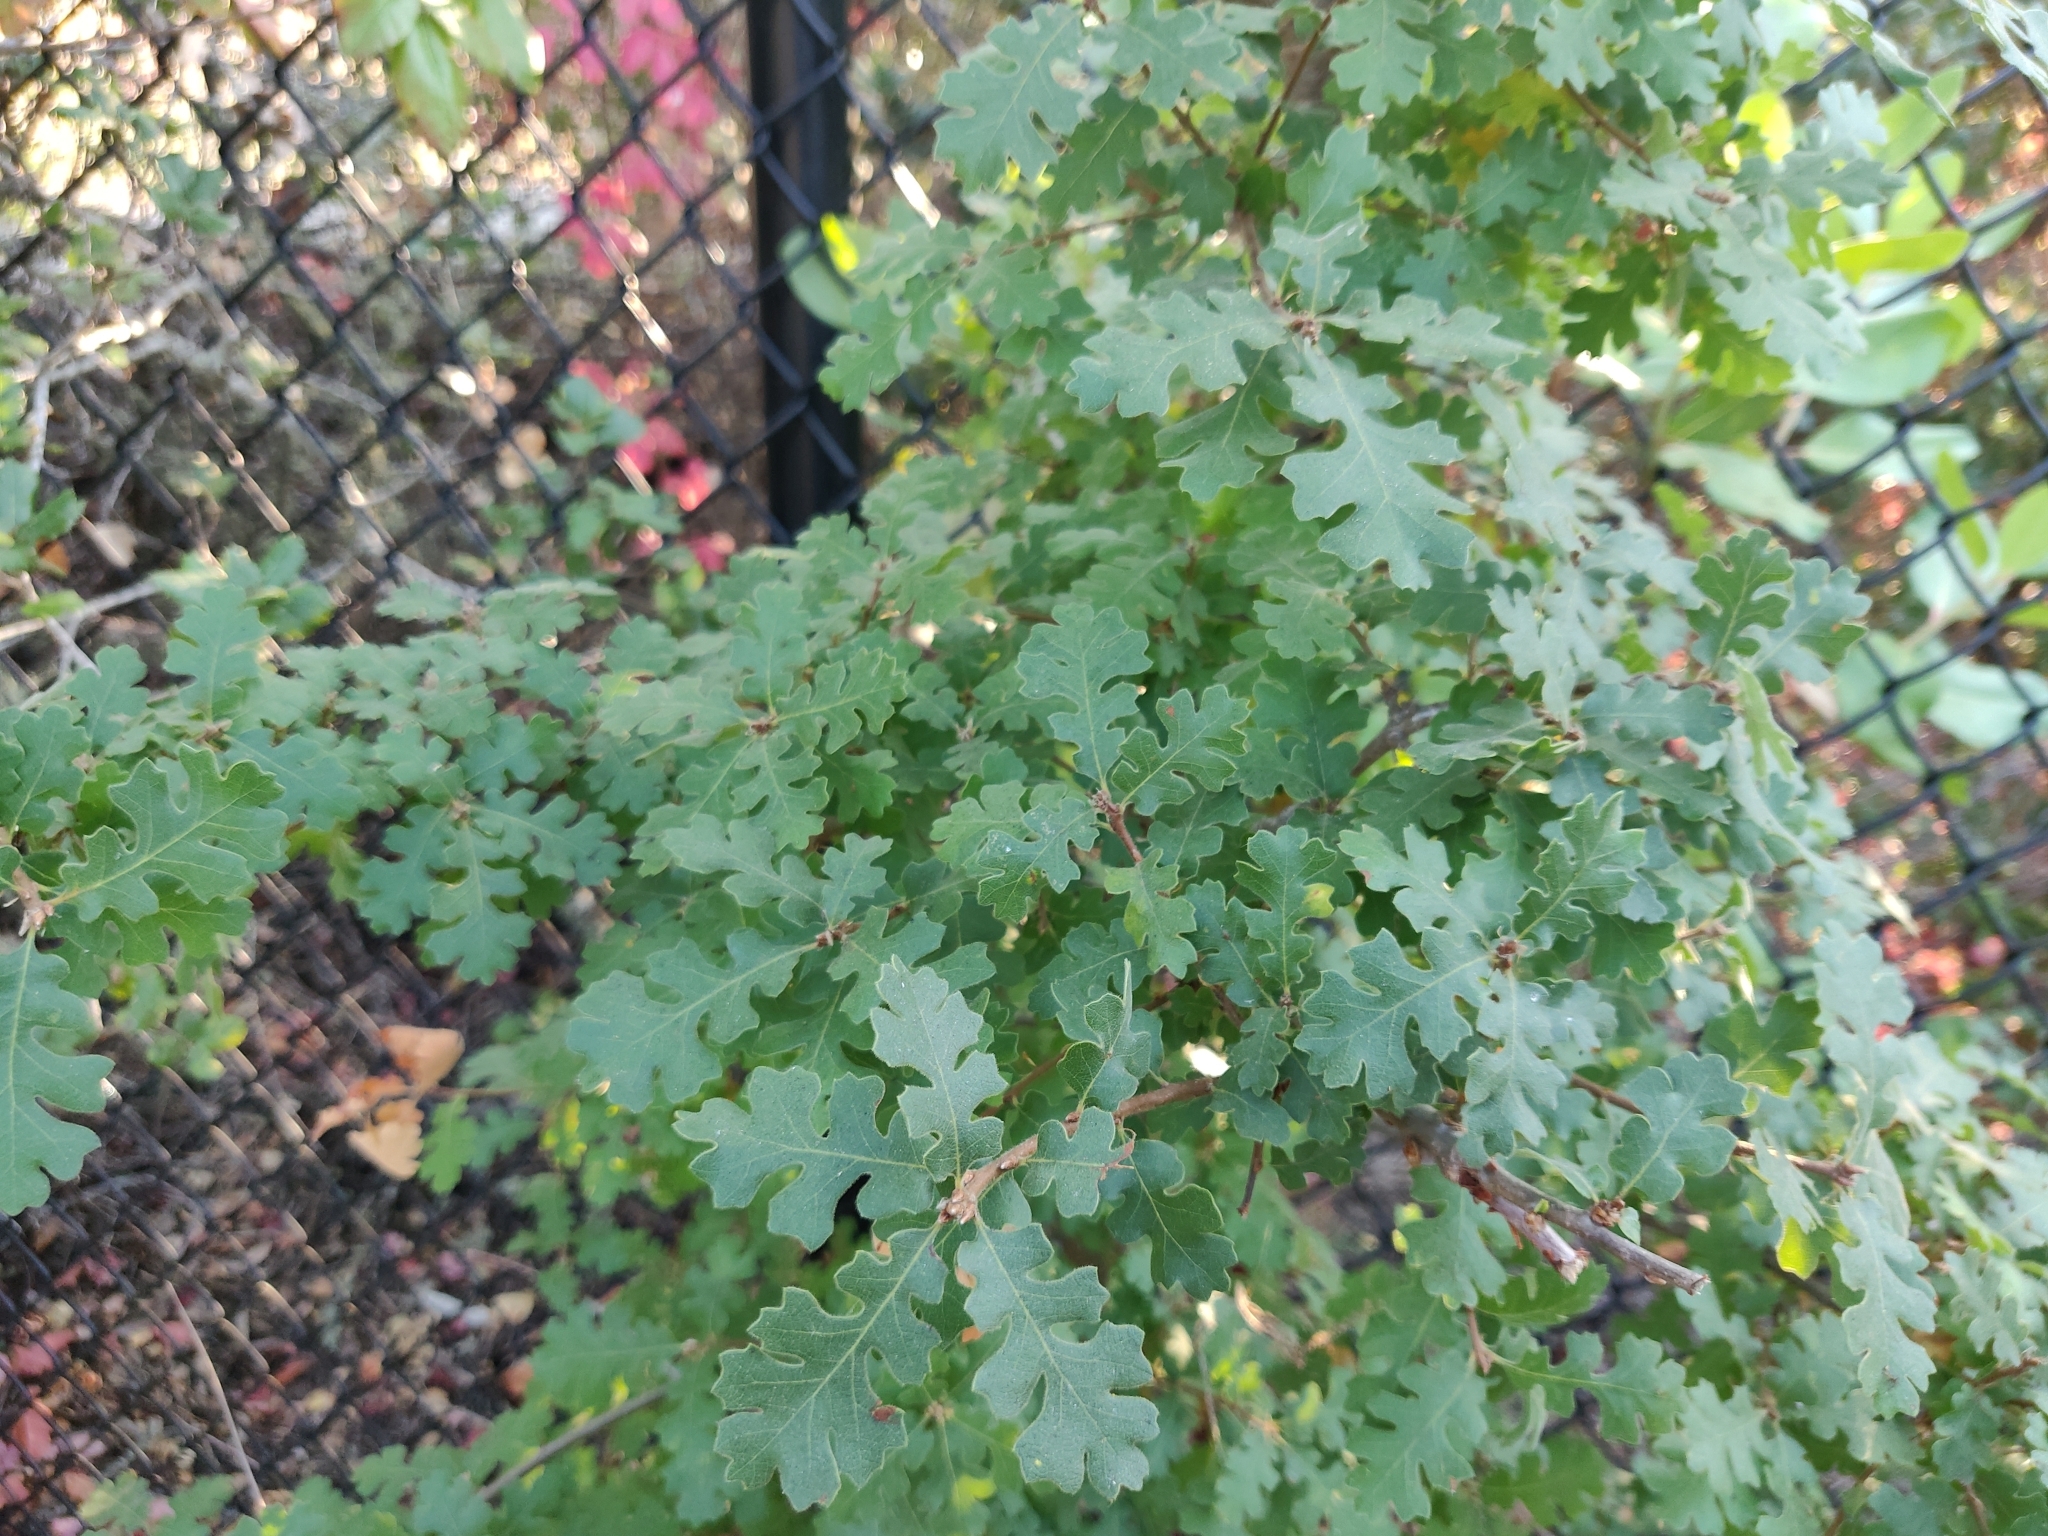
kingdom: Plantae
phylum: Tracheophyta
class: Magnoliopsida
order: Fagales
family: Fagaceae
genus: Quercus
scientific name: Quercus lobata
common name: Valley oak
